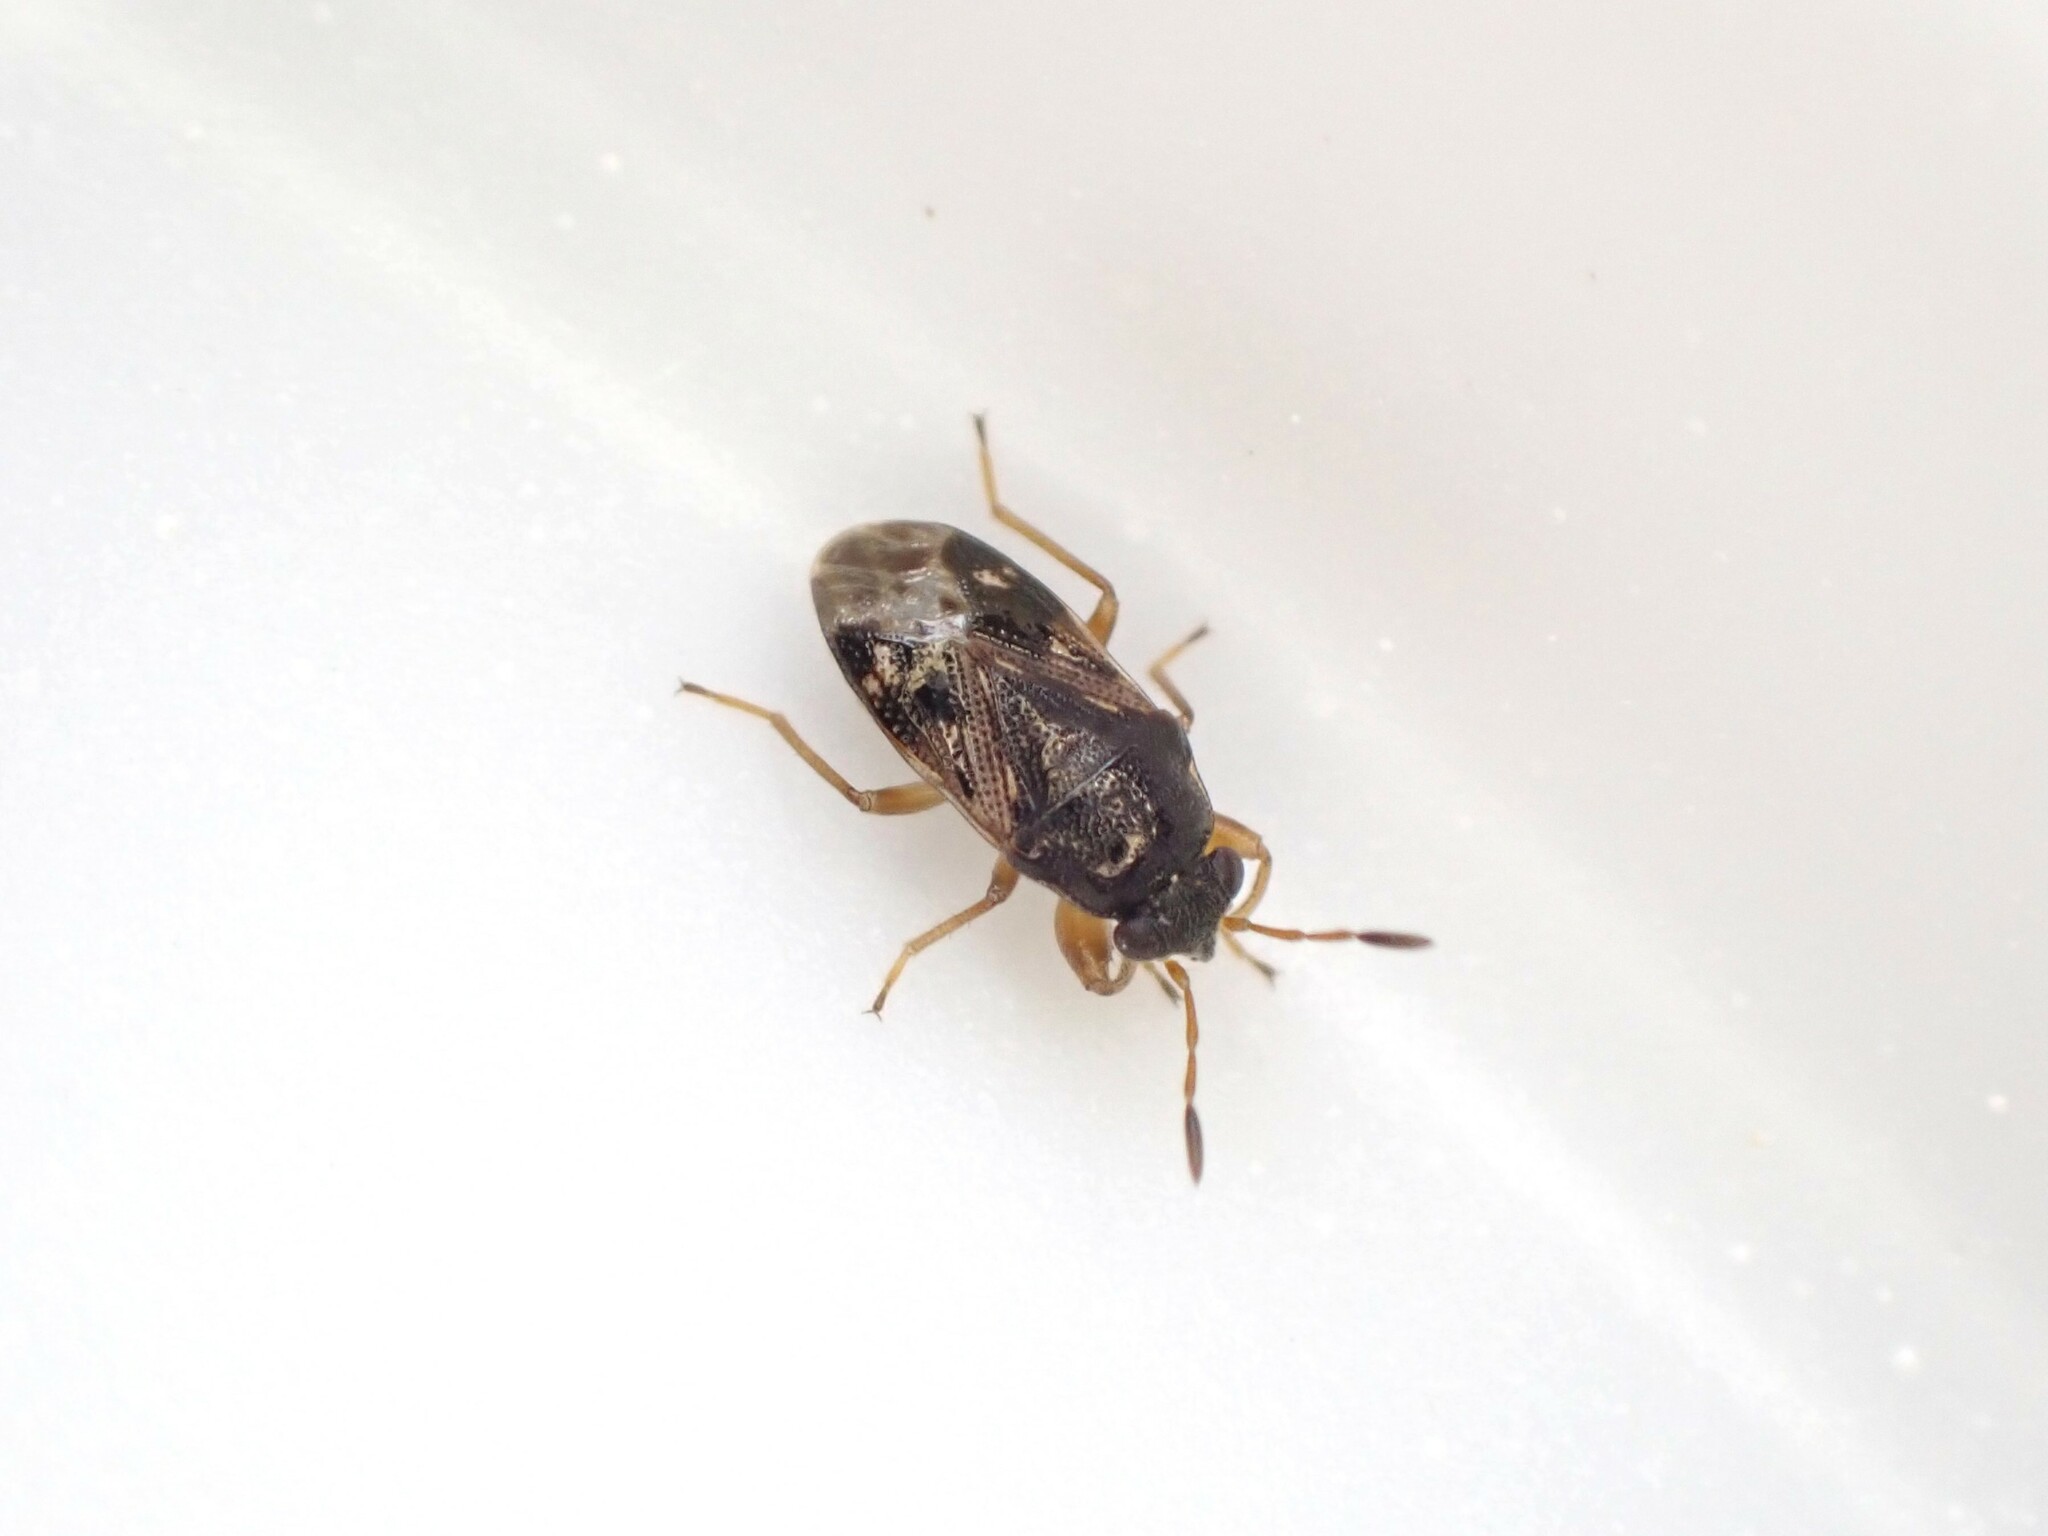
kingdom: Animalia
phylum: Arthropoda
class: Insecta
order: Hemiptera
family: Rhyparochromidae
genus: Stizocephalus
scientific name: Stizocephalus brevirostris
